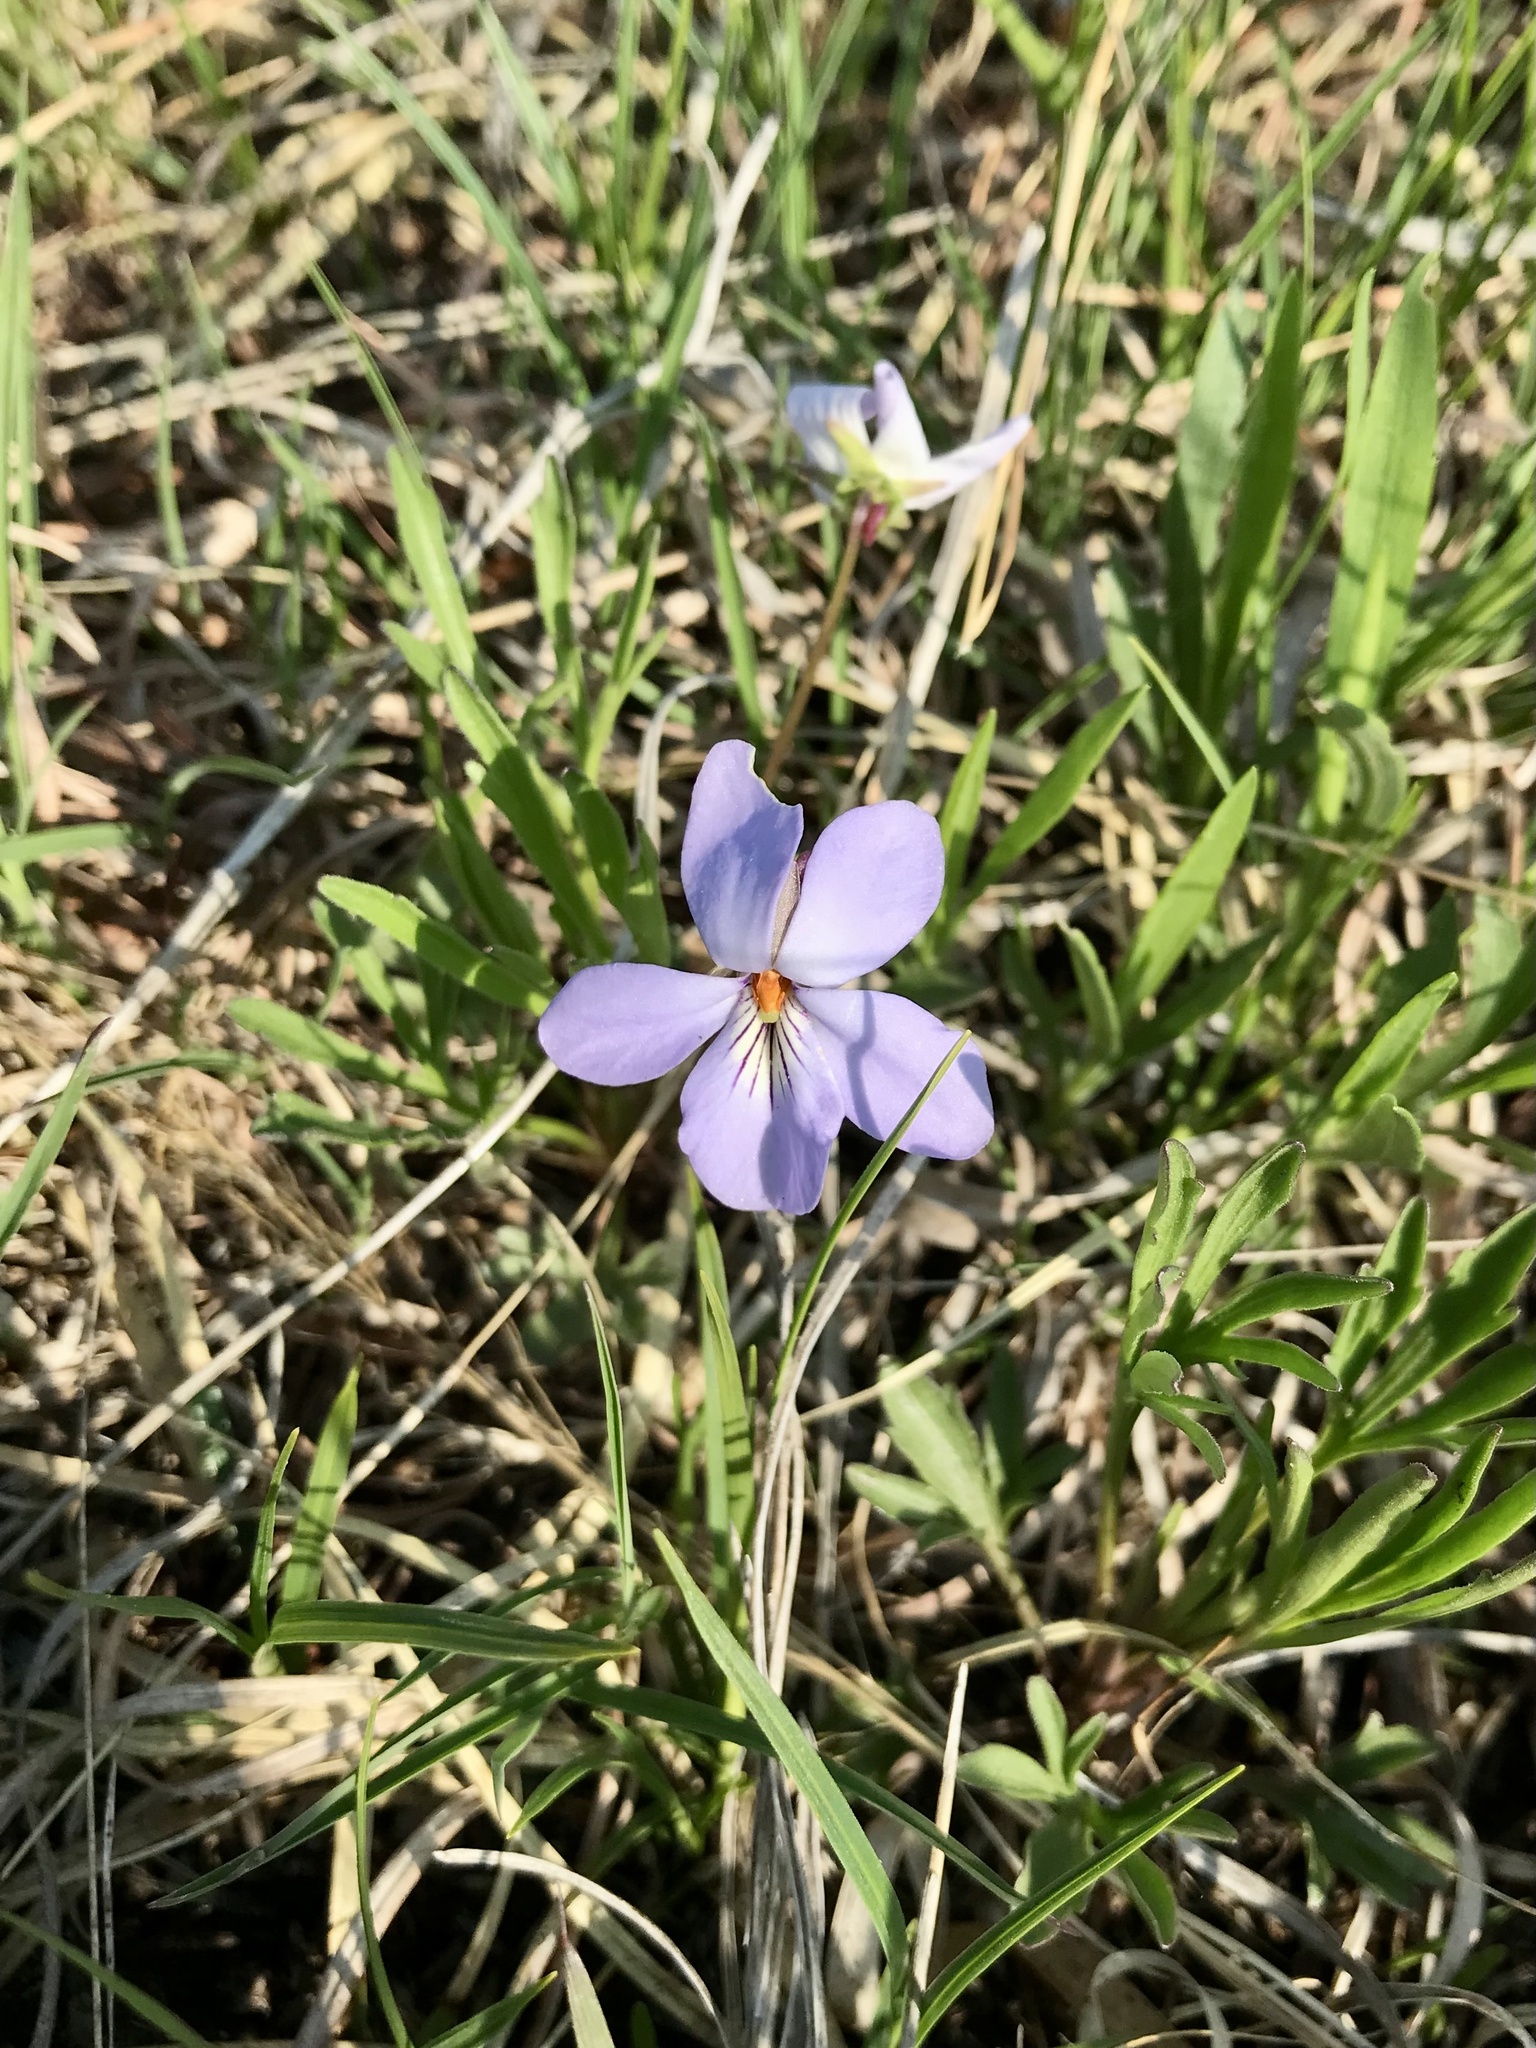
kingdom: Plantae
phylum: Tracheophyta
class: Magnoliopsida
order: Malpighiales
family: Violaceae
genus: Viola
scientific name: Viola pedata
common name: Pansy violet
